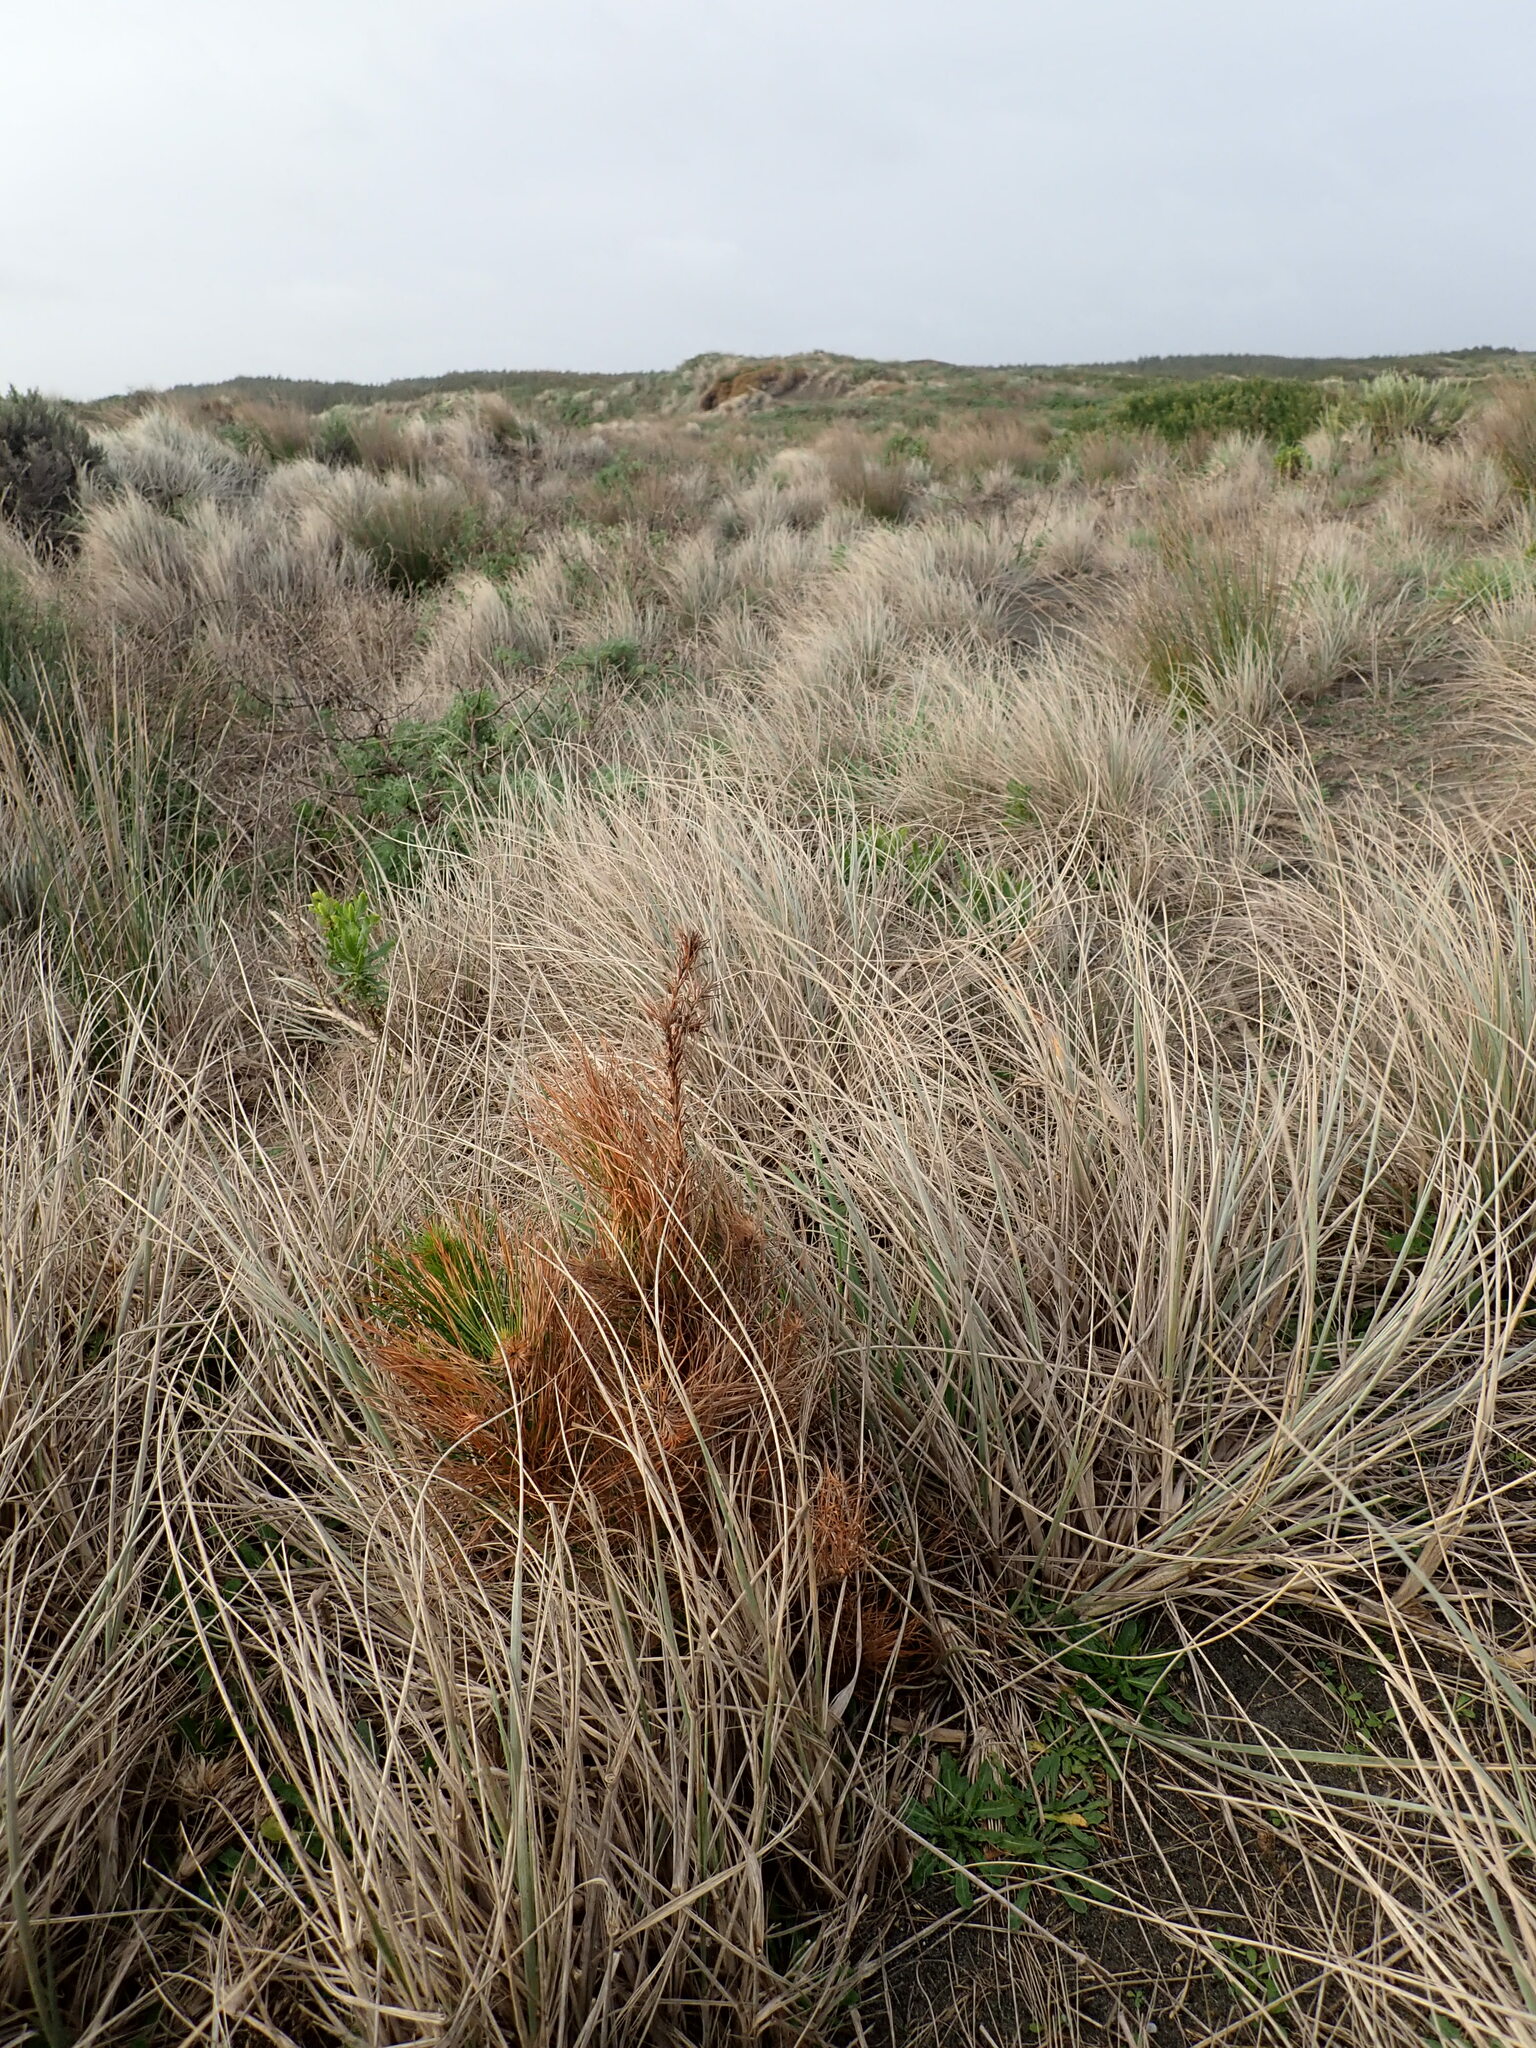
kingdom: Plantae
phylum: Tracheophyta
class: Pinopsida
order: Pinales
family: Pinaceae
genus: Pinus
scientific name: Pinus radiata
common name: Monterey pine
